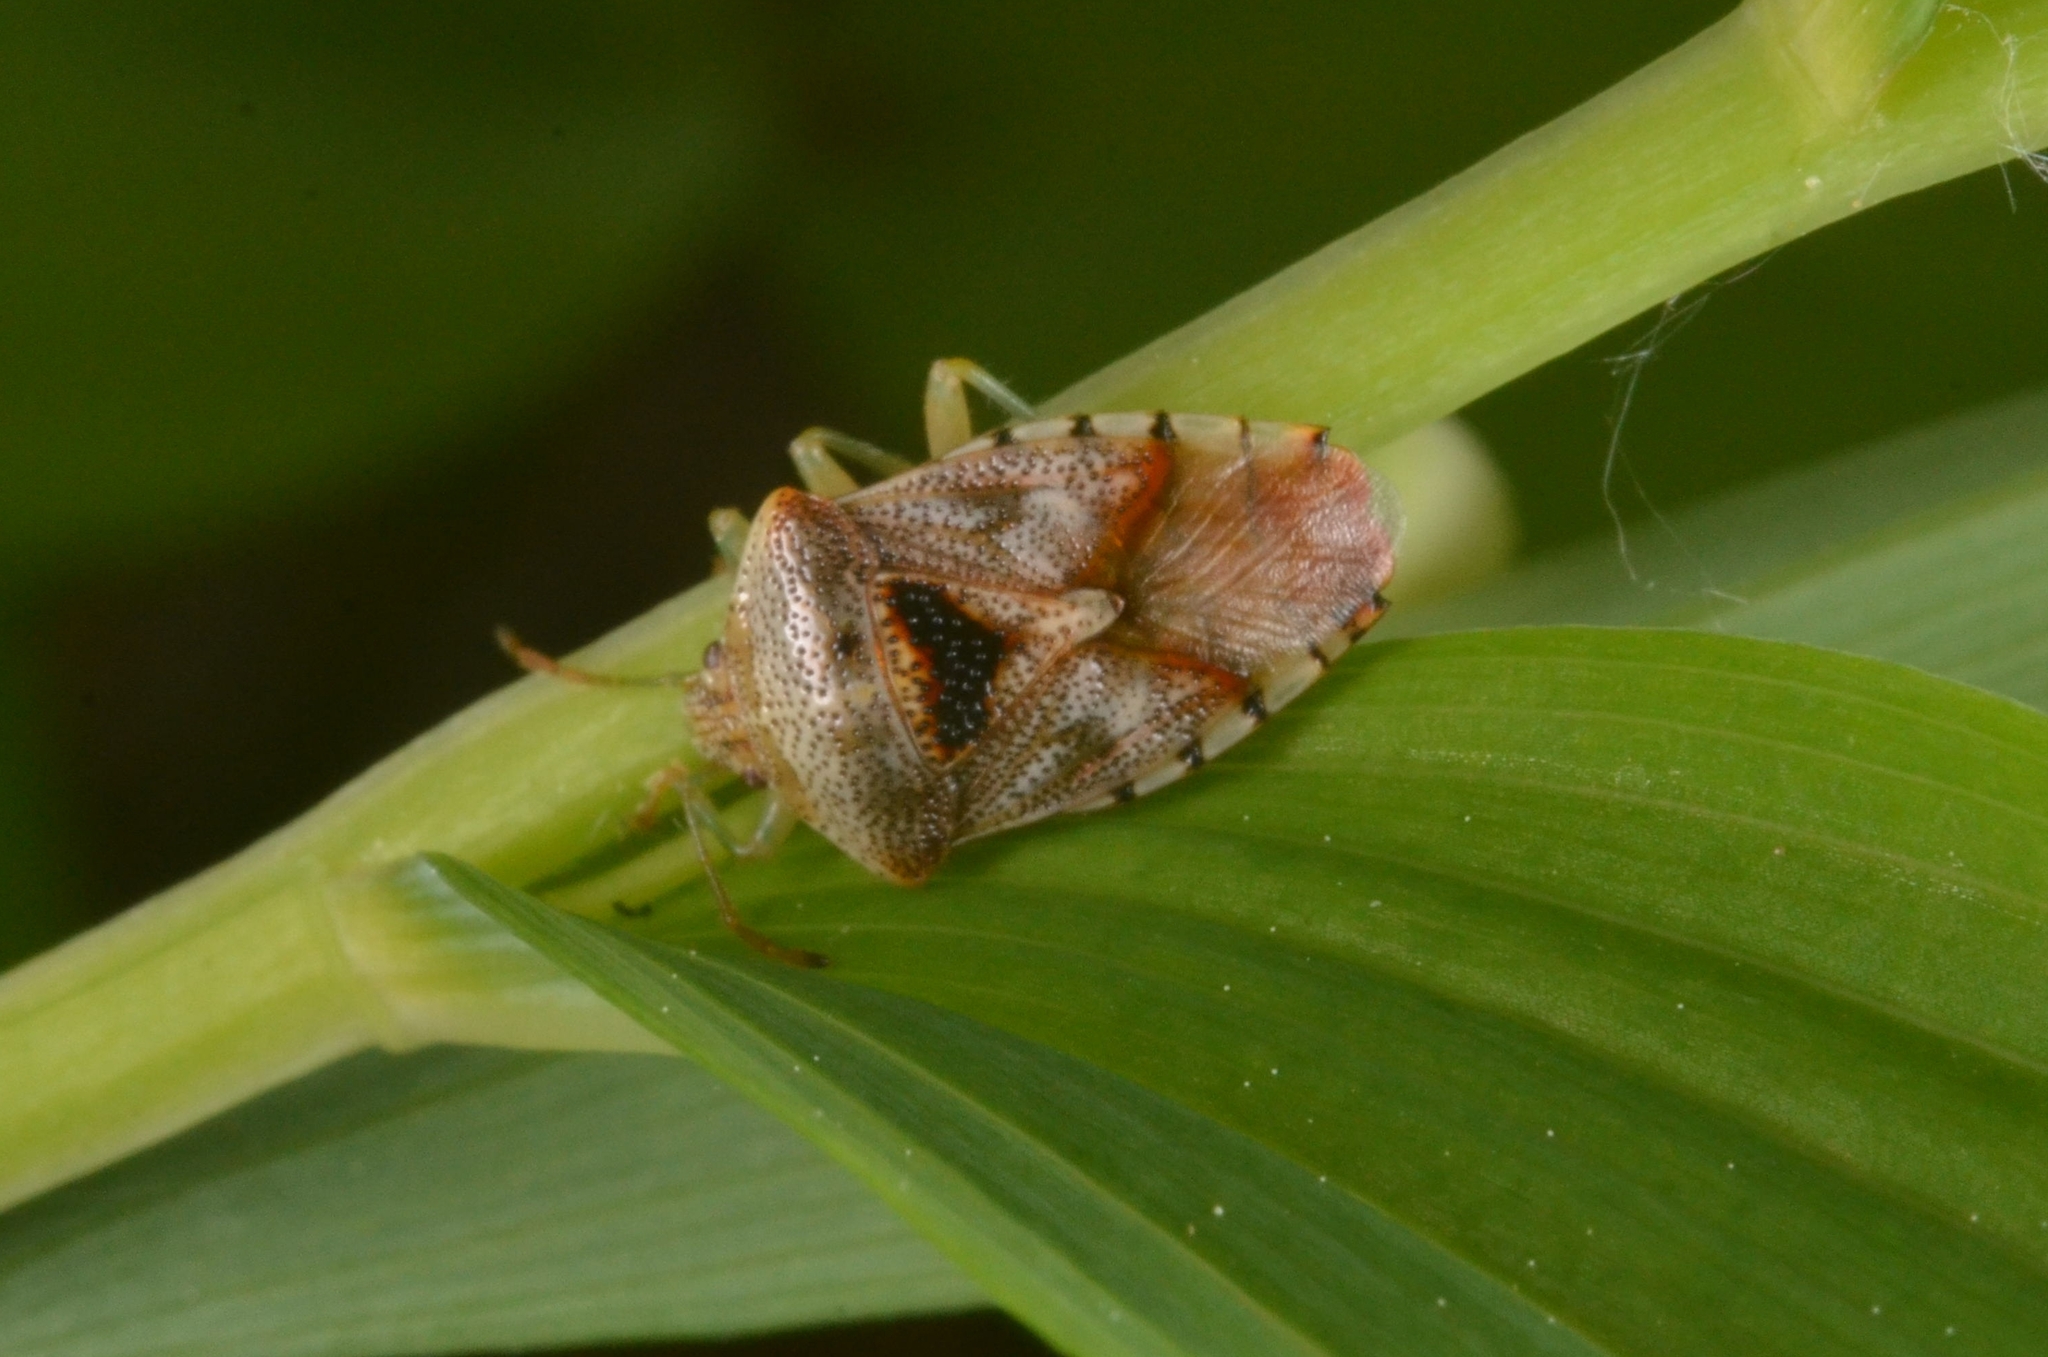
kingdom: Animalia
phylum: Arthropoda
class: Insecta
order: Hemiptera
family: Acanthosomatidae
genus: Elasmucha
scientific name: Elasmucha grisea
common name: Parent bug
